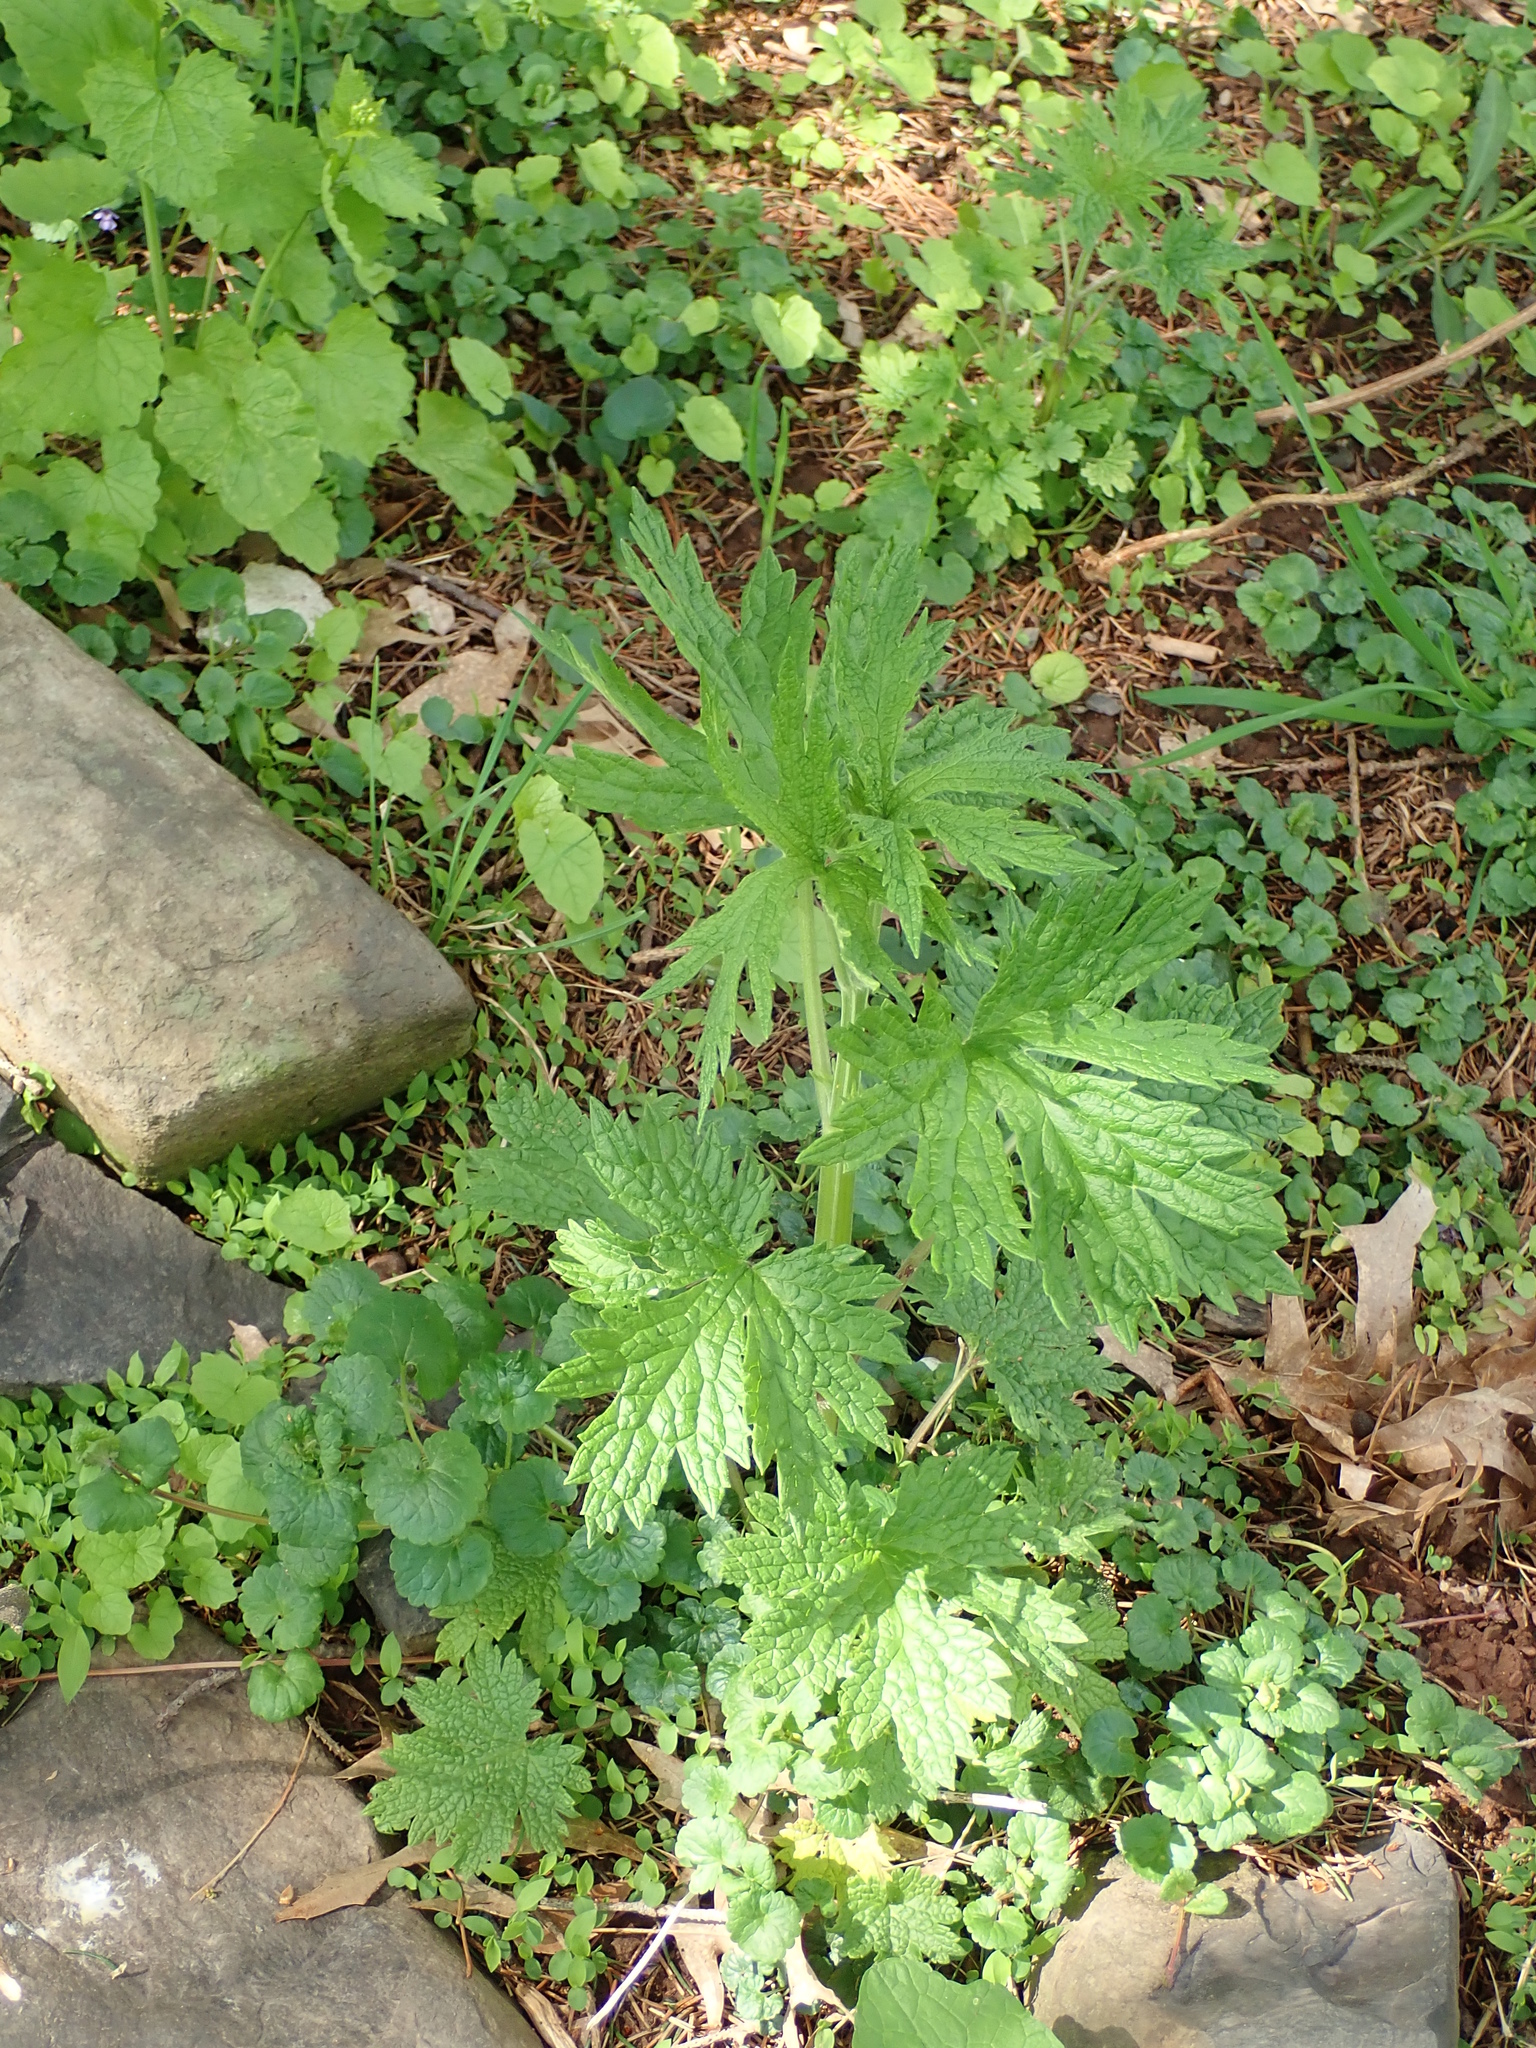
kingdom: Plantae
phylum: Tracheophyta
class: Magnoliopsida
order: Lamiales
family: Lamiaceae
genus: Leonurus
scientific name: Leonurus cardiaca
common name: Motherwort
